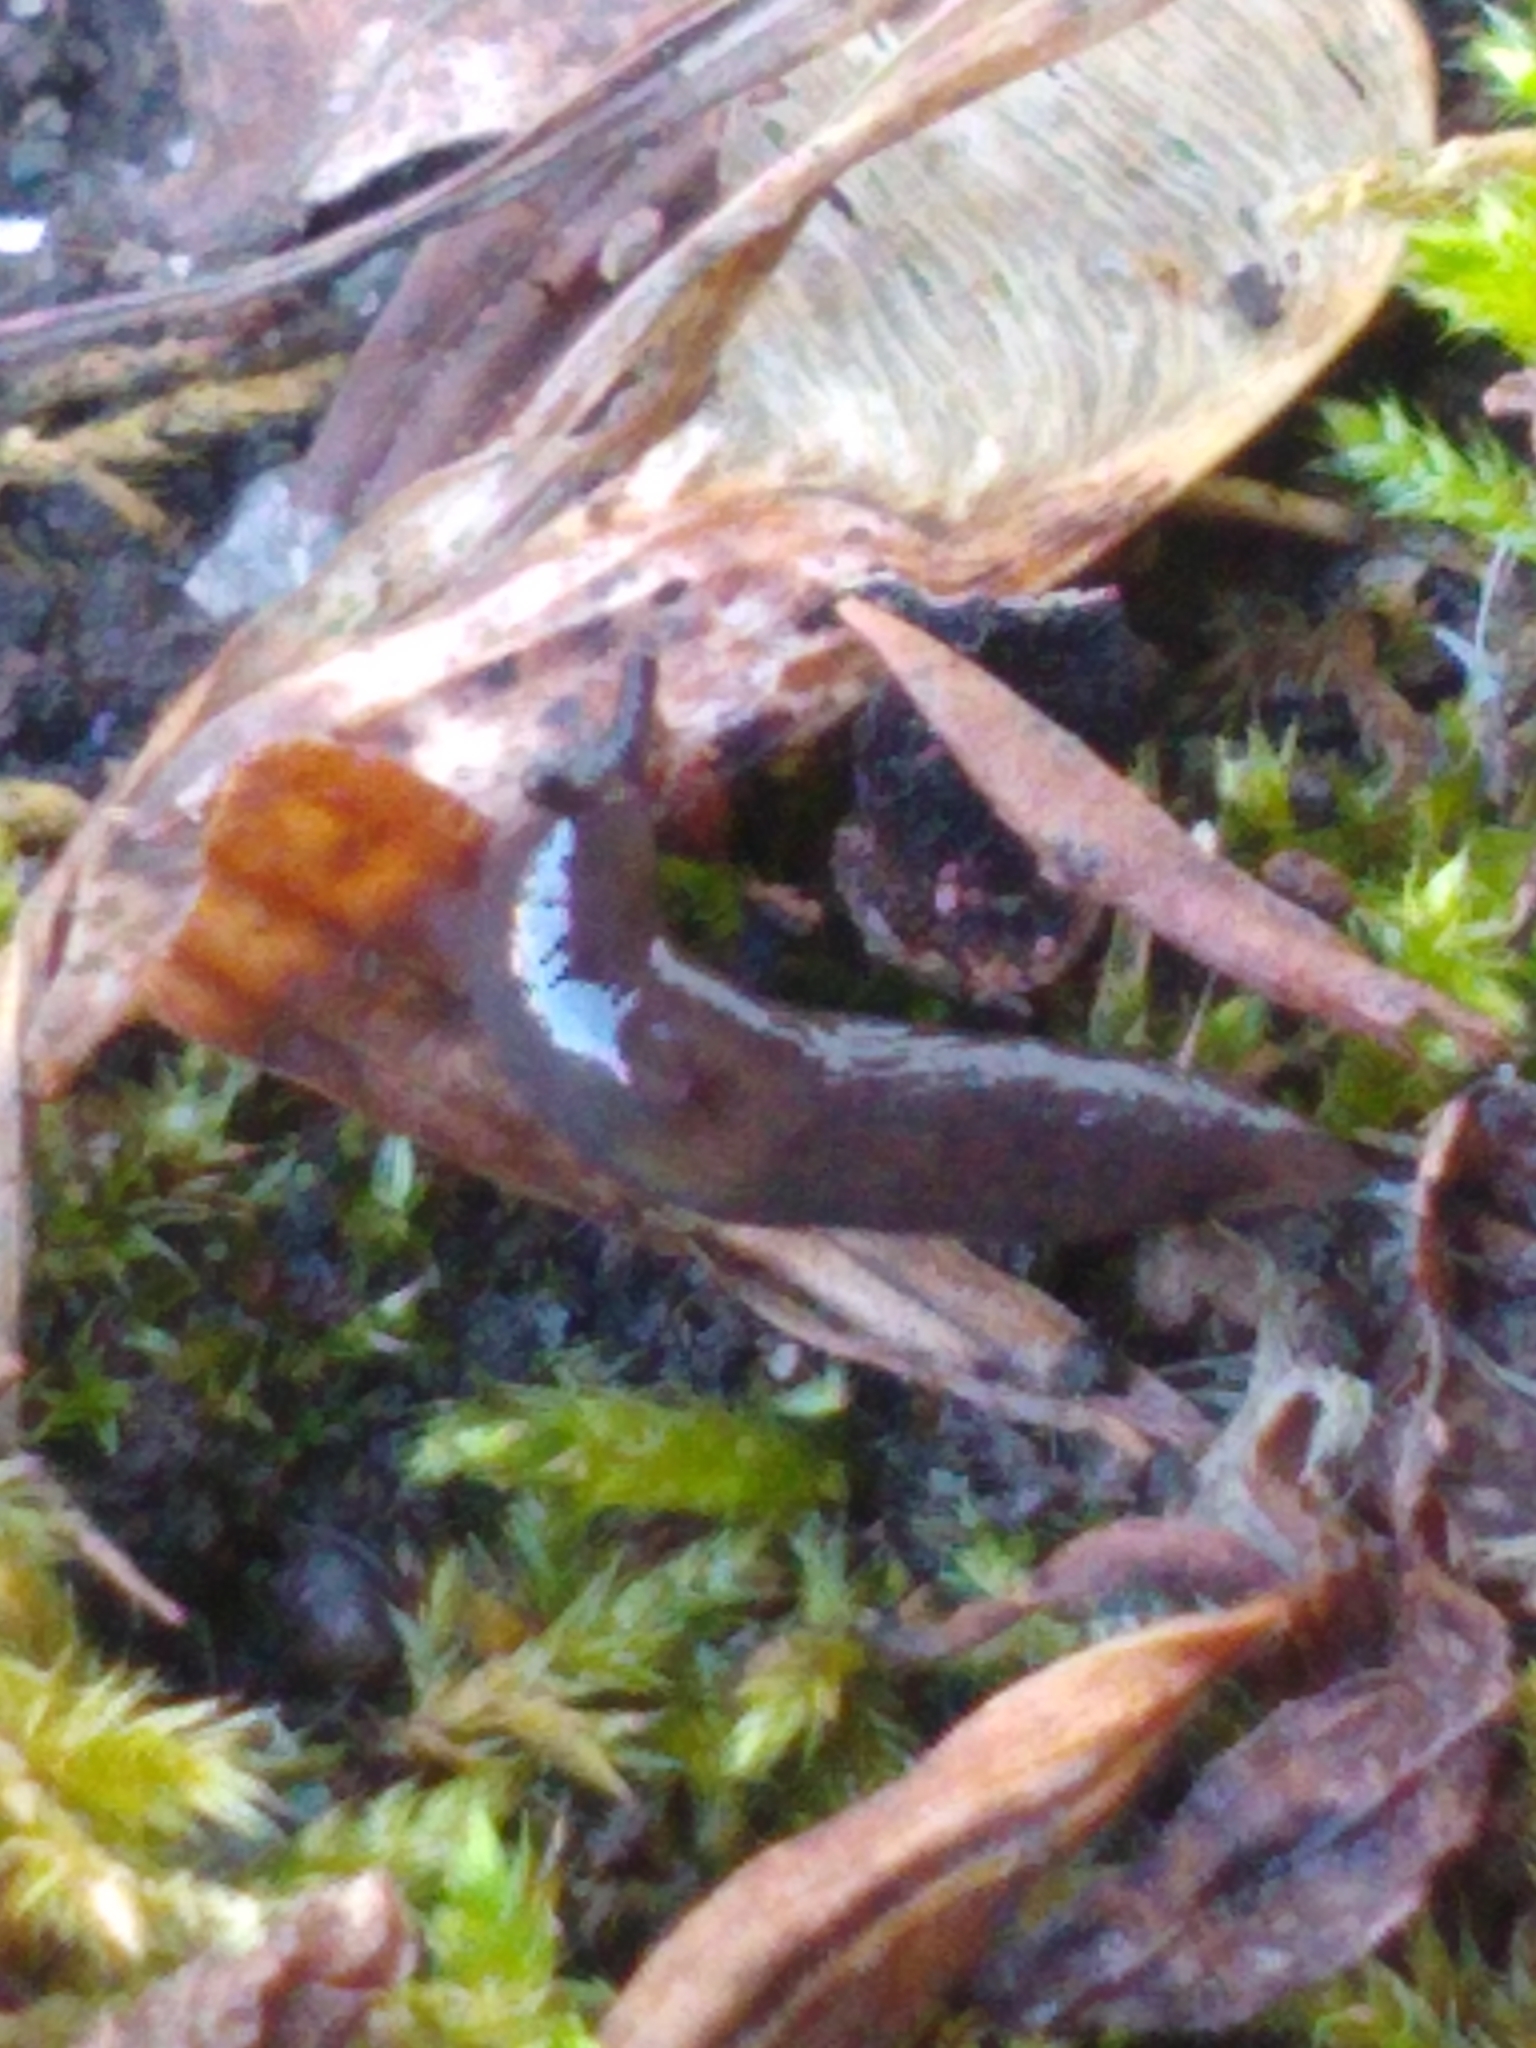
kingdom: Animalia
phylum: Mollusca
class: Gastropoda
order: Stylommatophora
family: Agriolimacidae
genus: Deroceras
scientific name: Deroceras laeve
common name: Marsh slug
